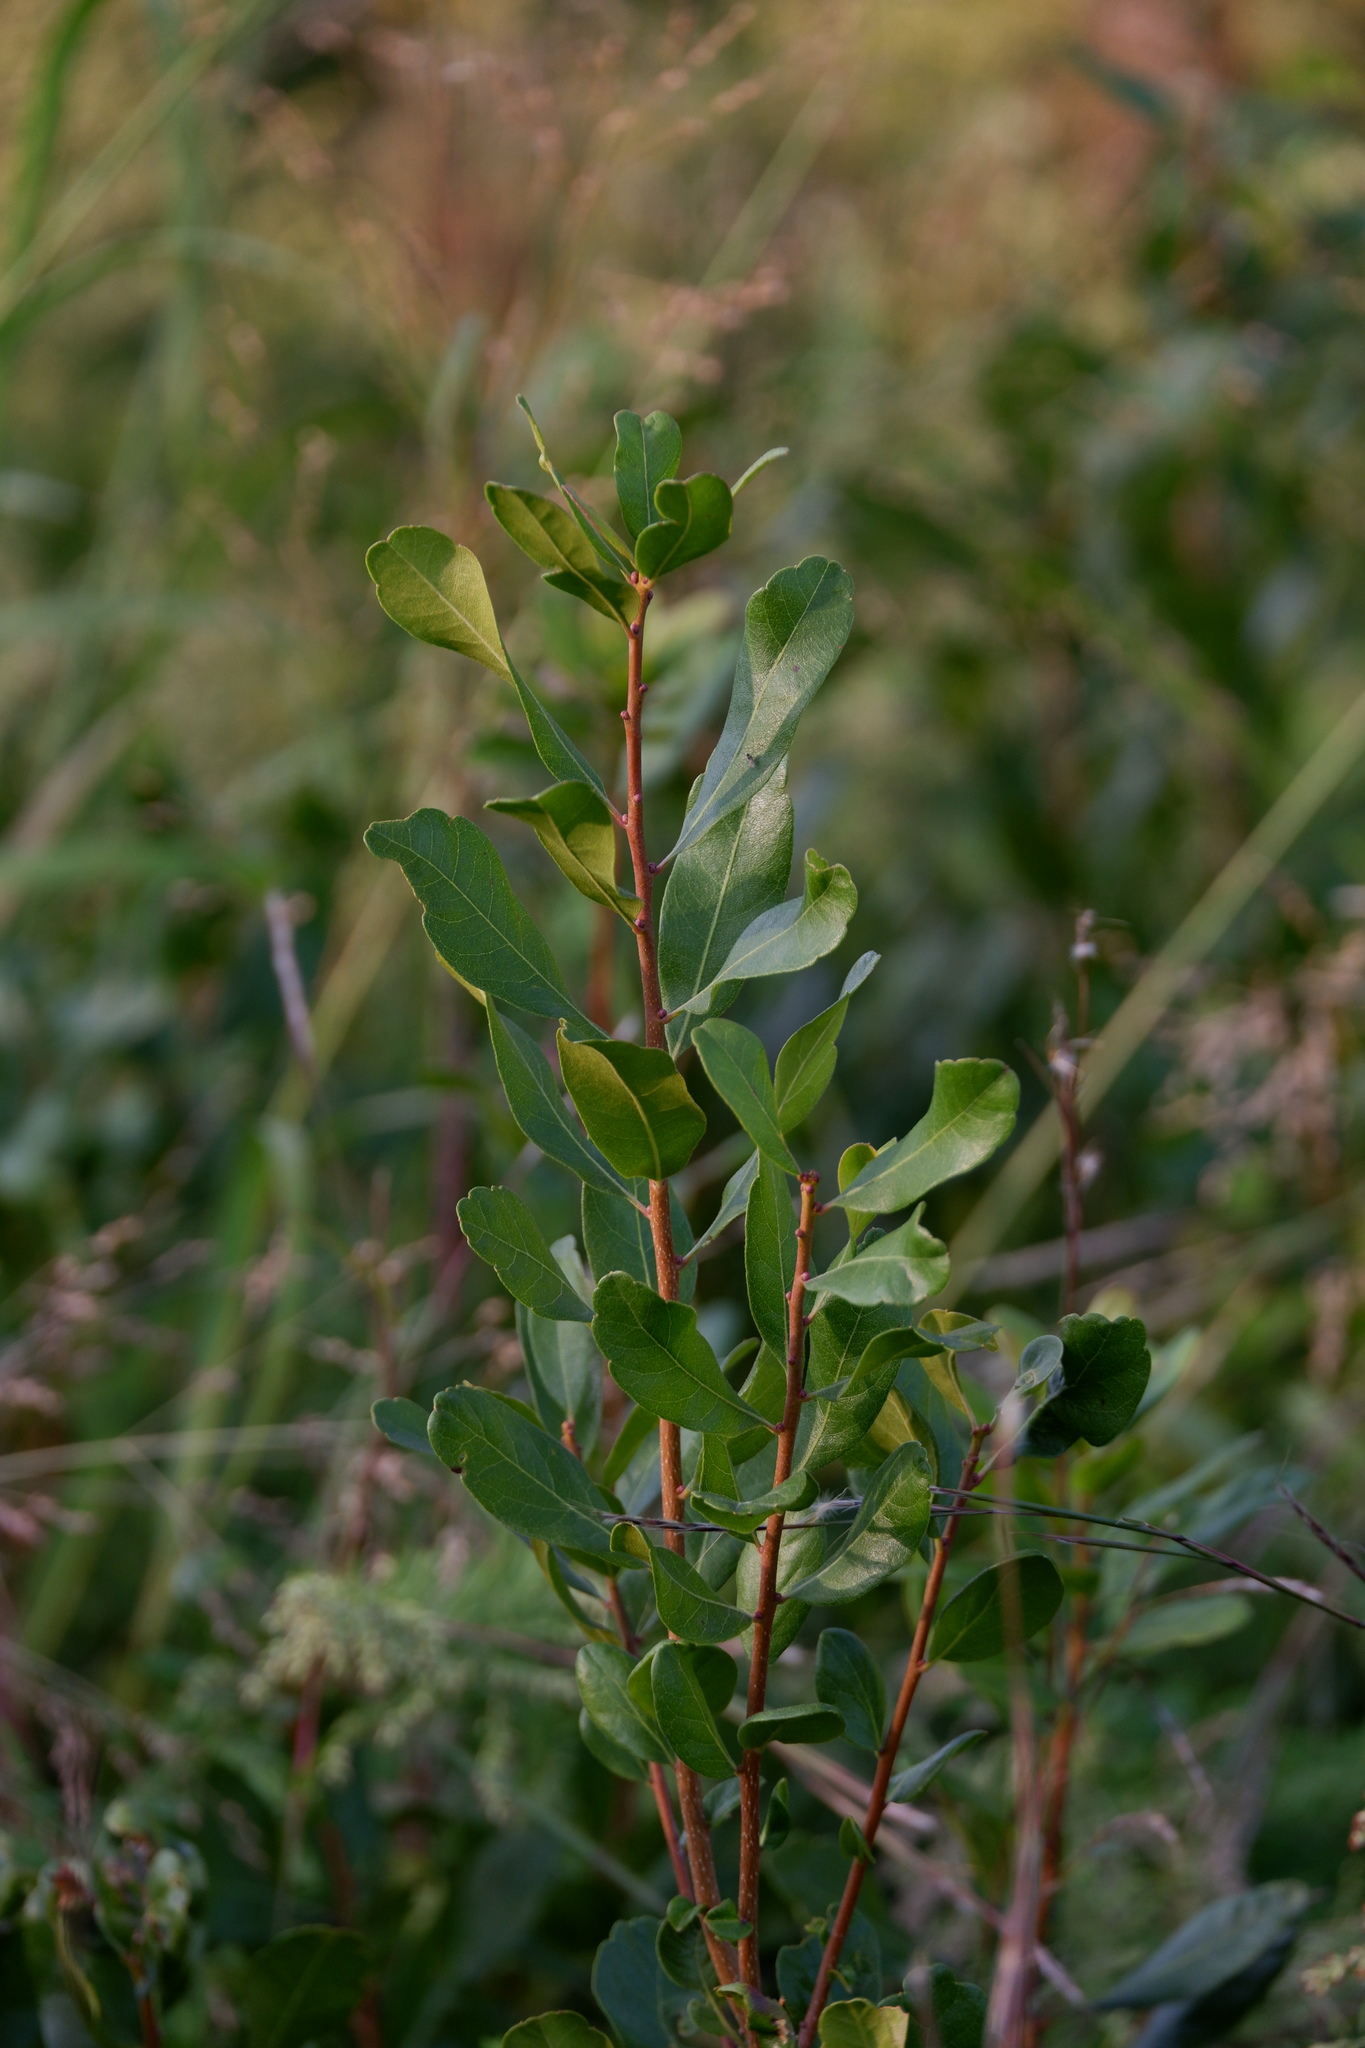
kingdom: Plantae
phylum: Tracheophyta
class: Magnoliopsida
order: Fagales
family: Myricaceae
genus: Morella
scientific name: Morella pensylvanica
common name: Northern bayberry
